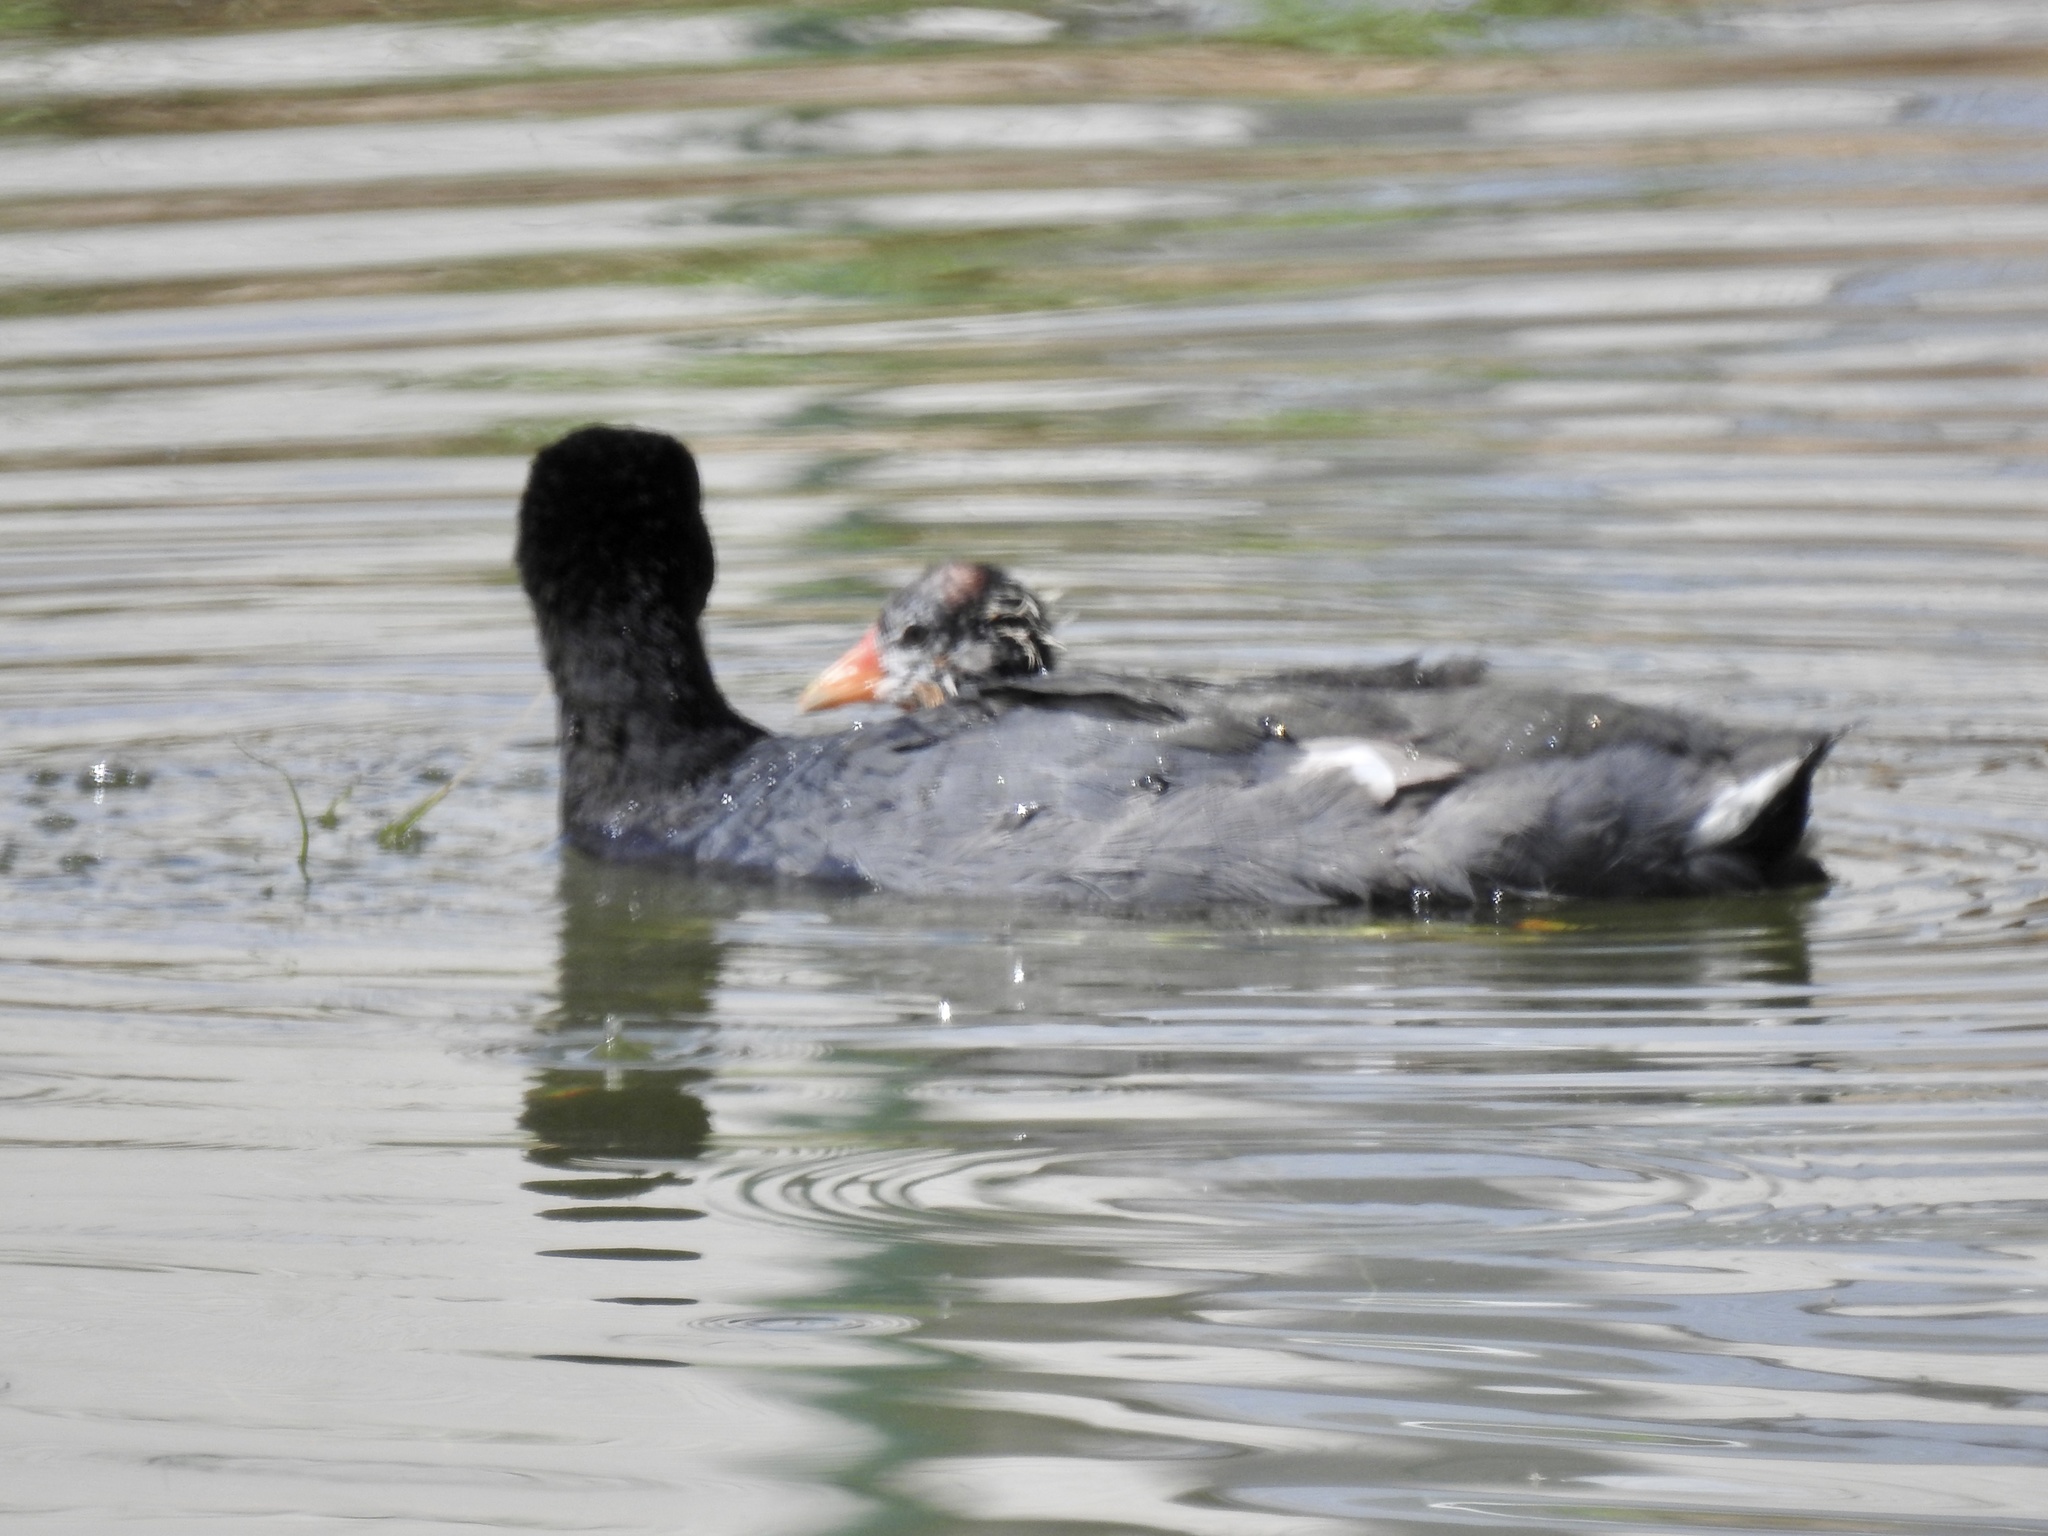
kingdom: Animalia
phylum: Chordata
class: Aves
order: Gruiformes
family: Rallidae
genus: Fulica
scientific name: Fulica americana
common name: American coot
